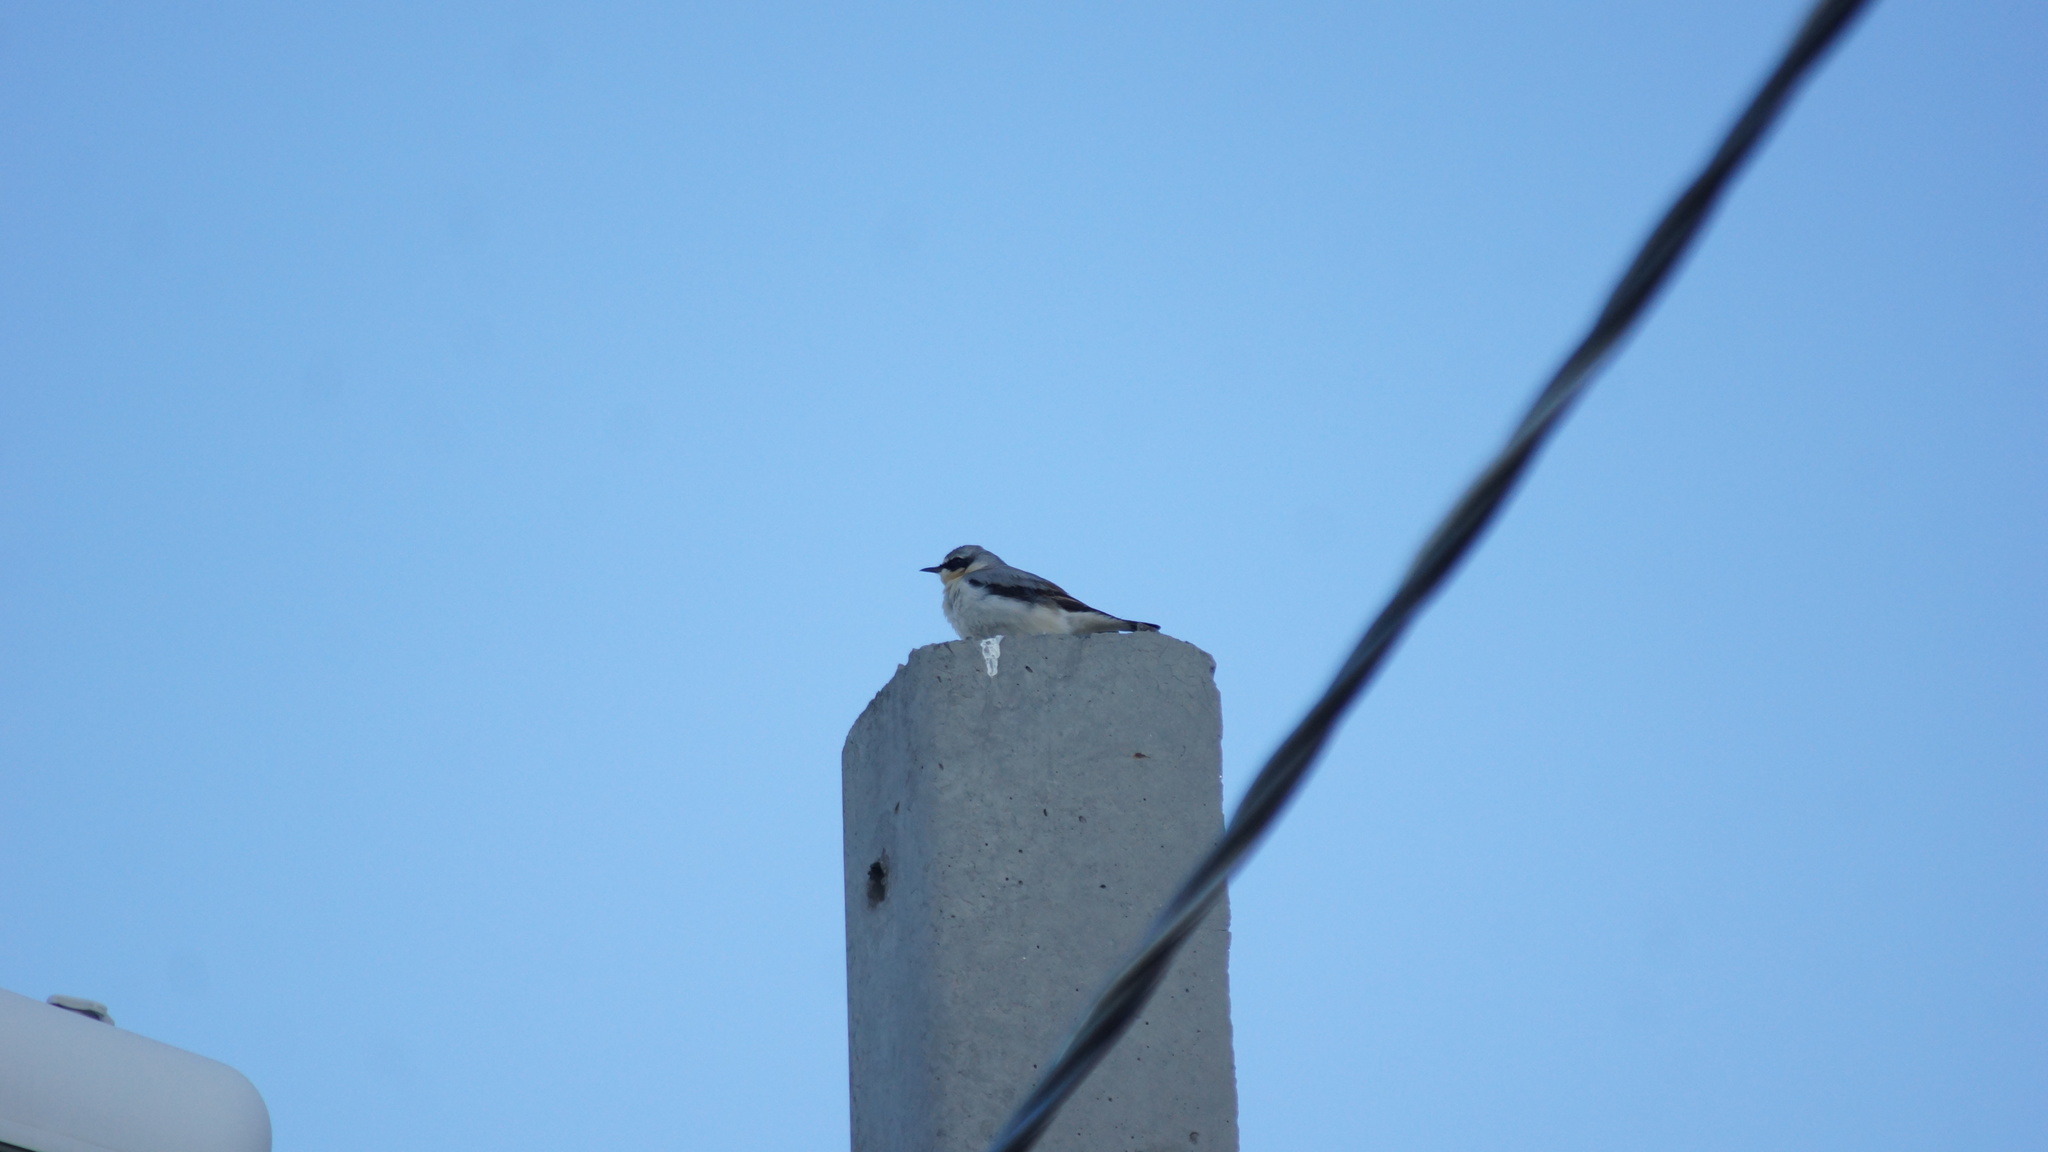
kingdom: Animalia
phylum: Chordata
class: Aves
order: Passeriformes
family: Muscicapidae
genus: Oenanthe
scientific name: Oenanthe oenanthe
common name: Northern wheatear
